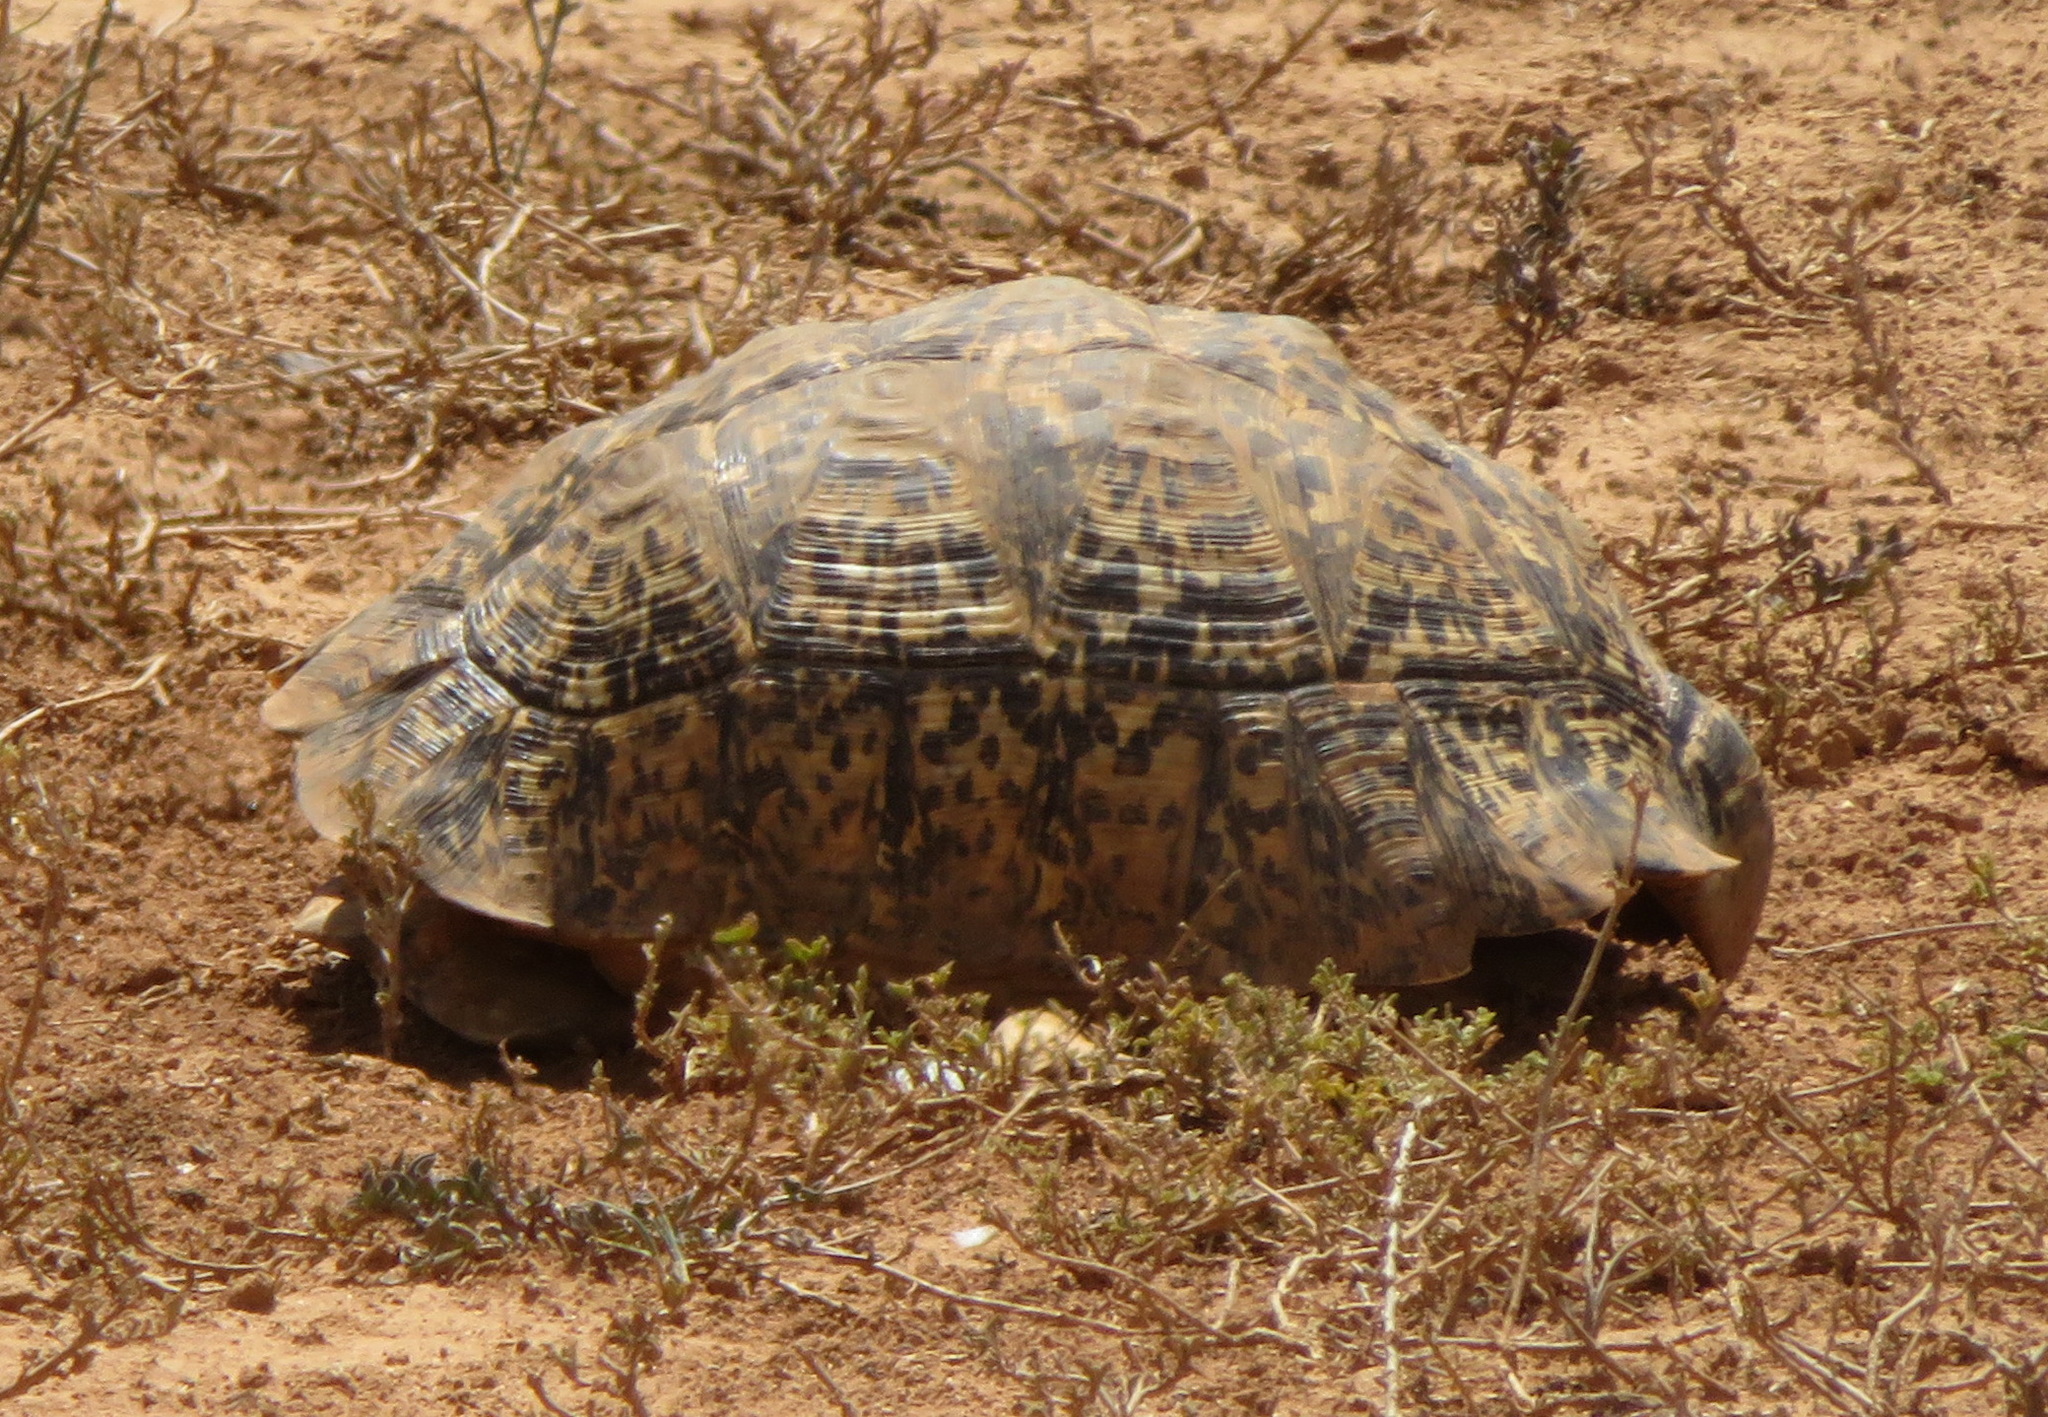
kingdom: Animalia
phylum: Chordata
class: Testudines
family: Testudinidae
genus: Stigmochelys
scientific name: Stigmochelys pardalis
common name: Leopard tortoise
